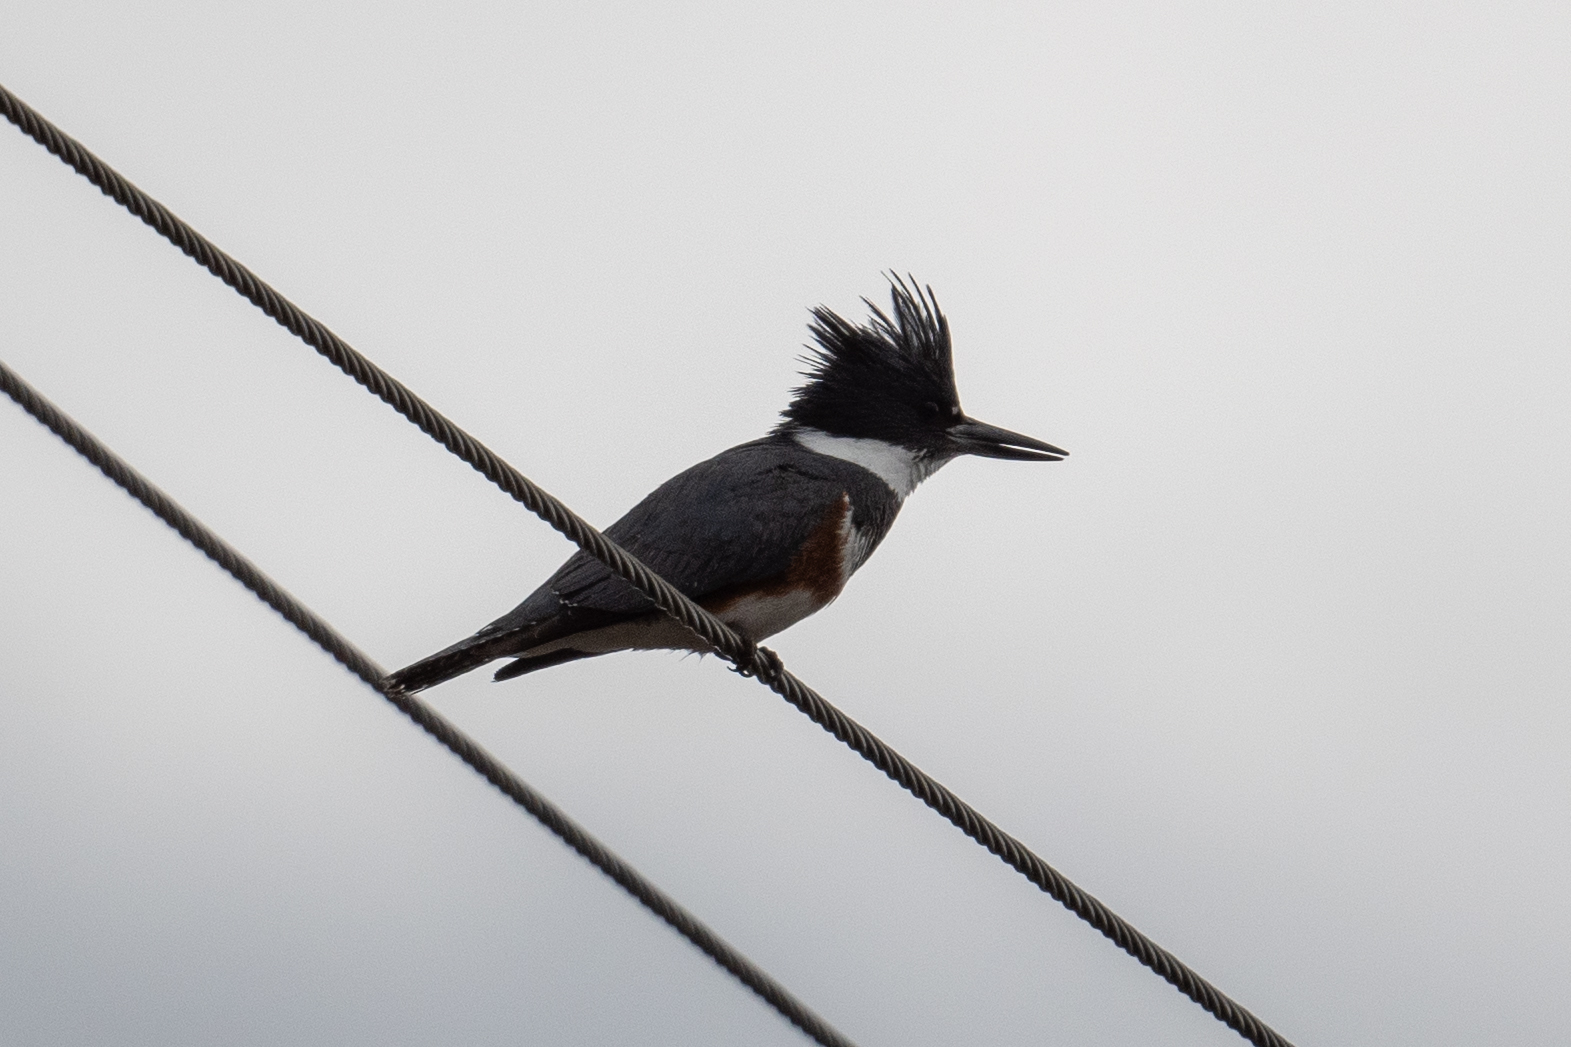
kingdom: Animalia
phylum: Chordata
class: Aves
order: Coraciiformes
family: Alcedinidae
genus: Megaceryle
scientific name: Megaceryle alcyon
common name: Belted kingfisher
